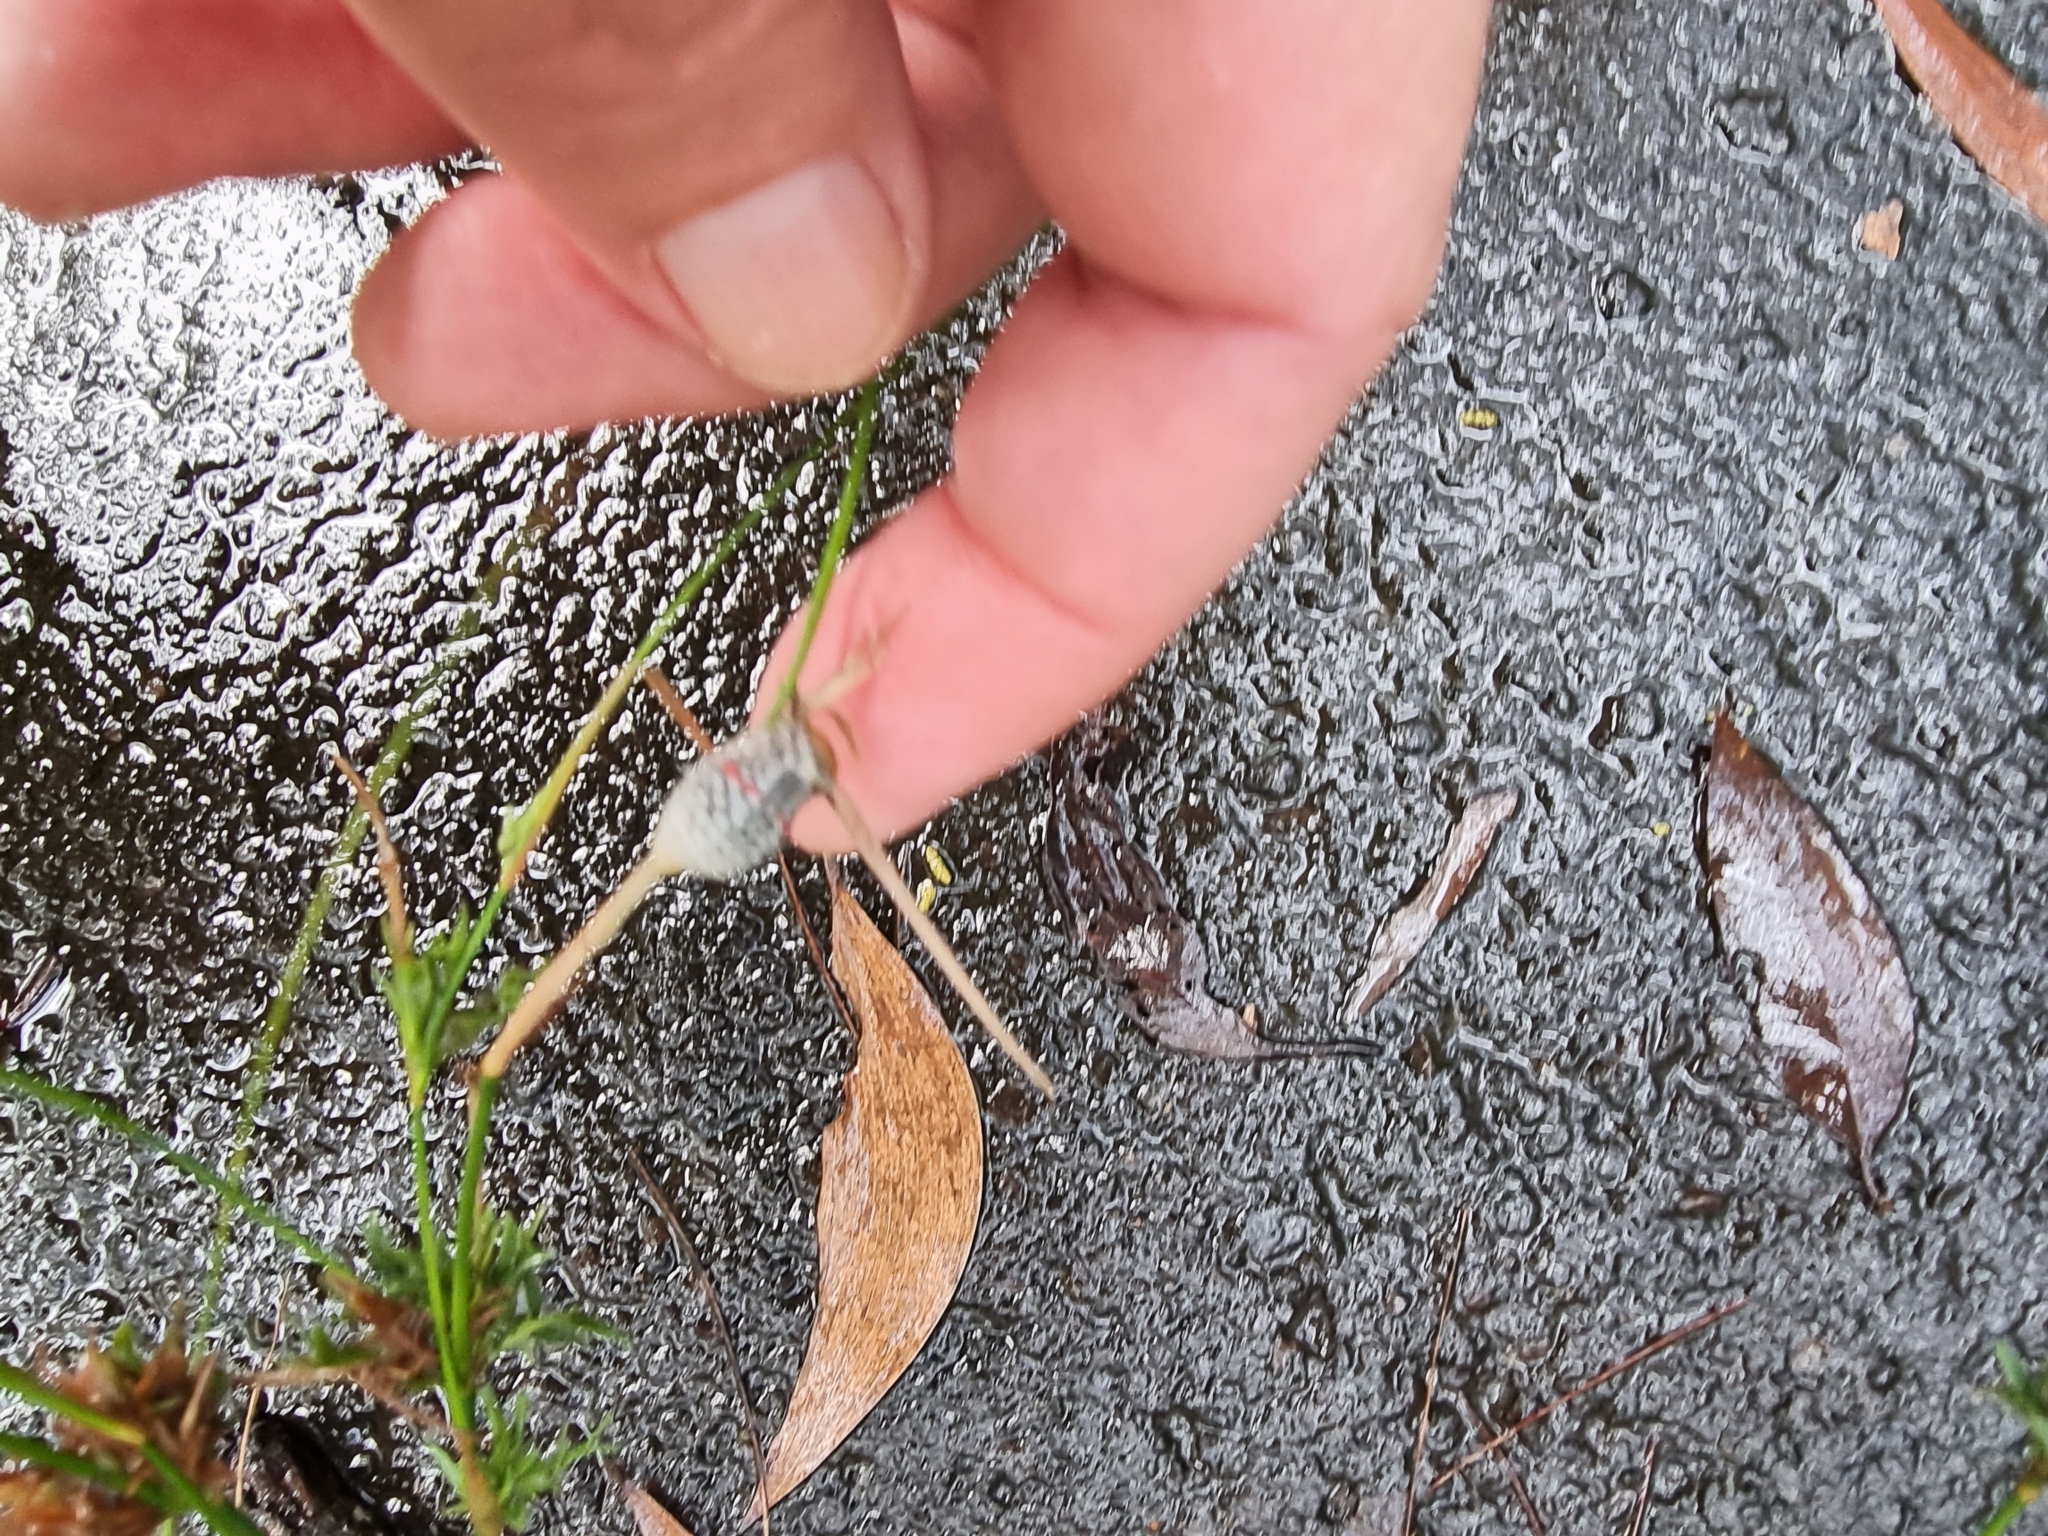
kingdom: Animalia
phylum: Arthropoda
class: Insecta
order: Coleoptera
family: Chrysomelidae
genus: Dicranosterna
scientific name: Dicranosterna
